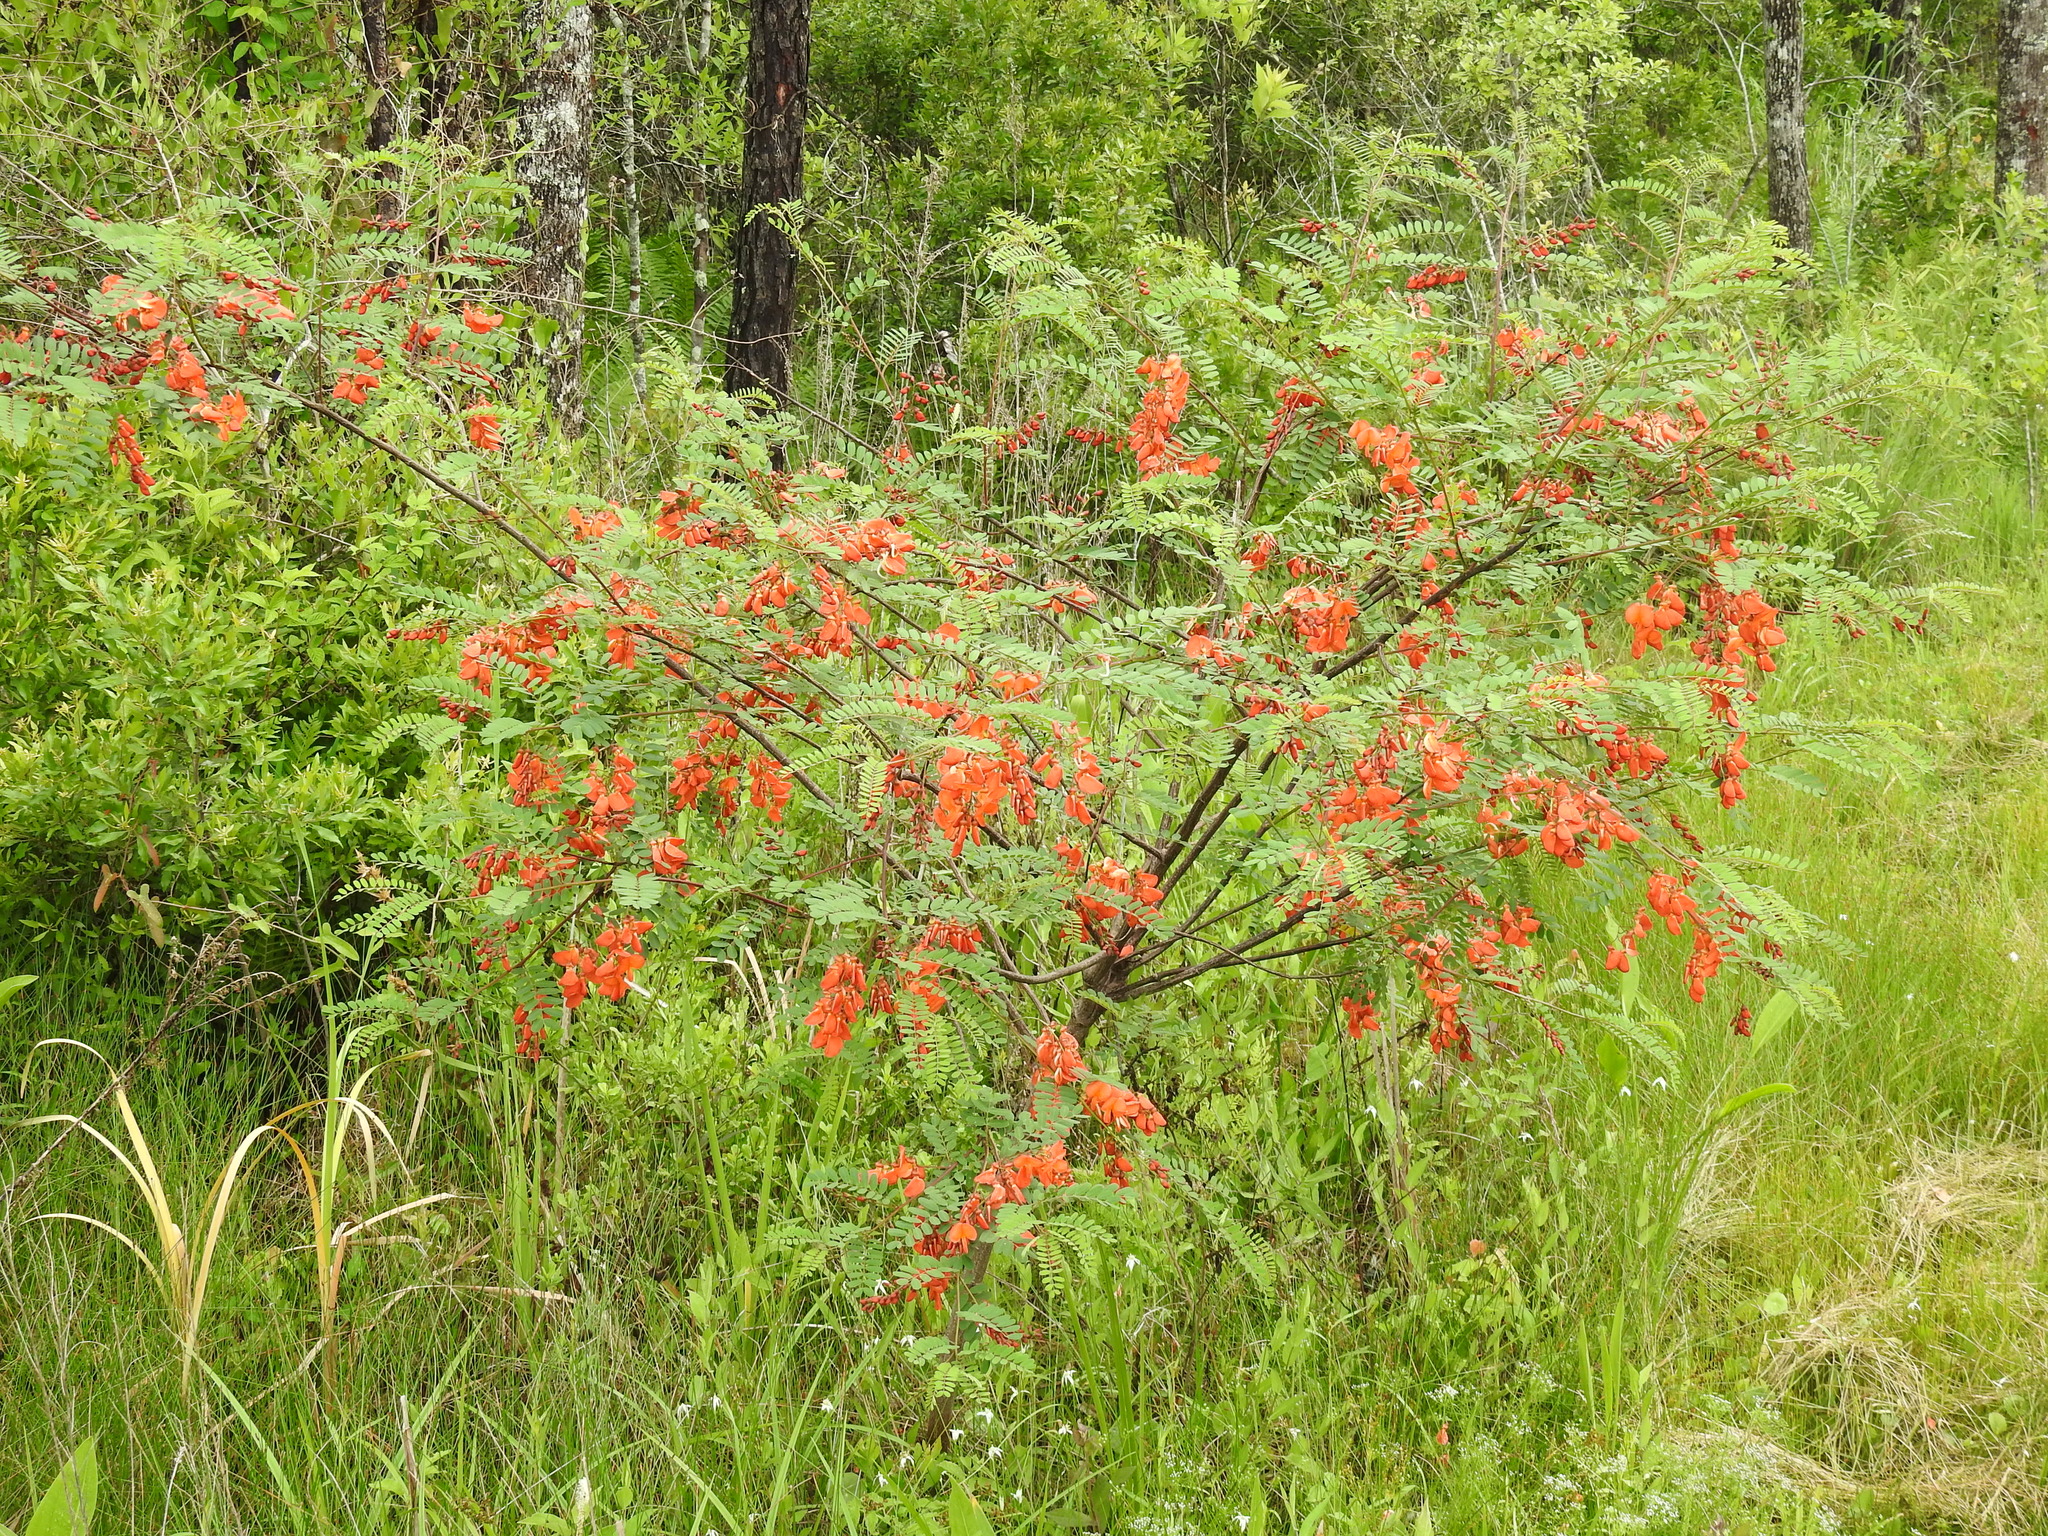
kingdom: Plantae
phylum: Tracheophyta
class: Magnoliopsida
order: Fabales
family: Fabaceae
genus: Sesbania
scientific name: Sesbania punicea
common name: Rattlebox
